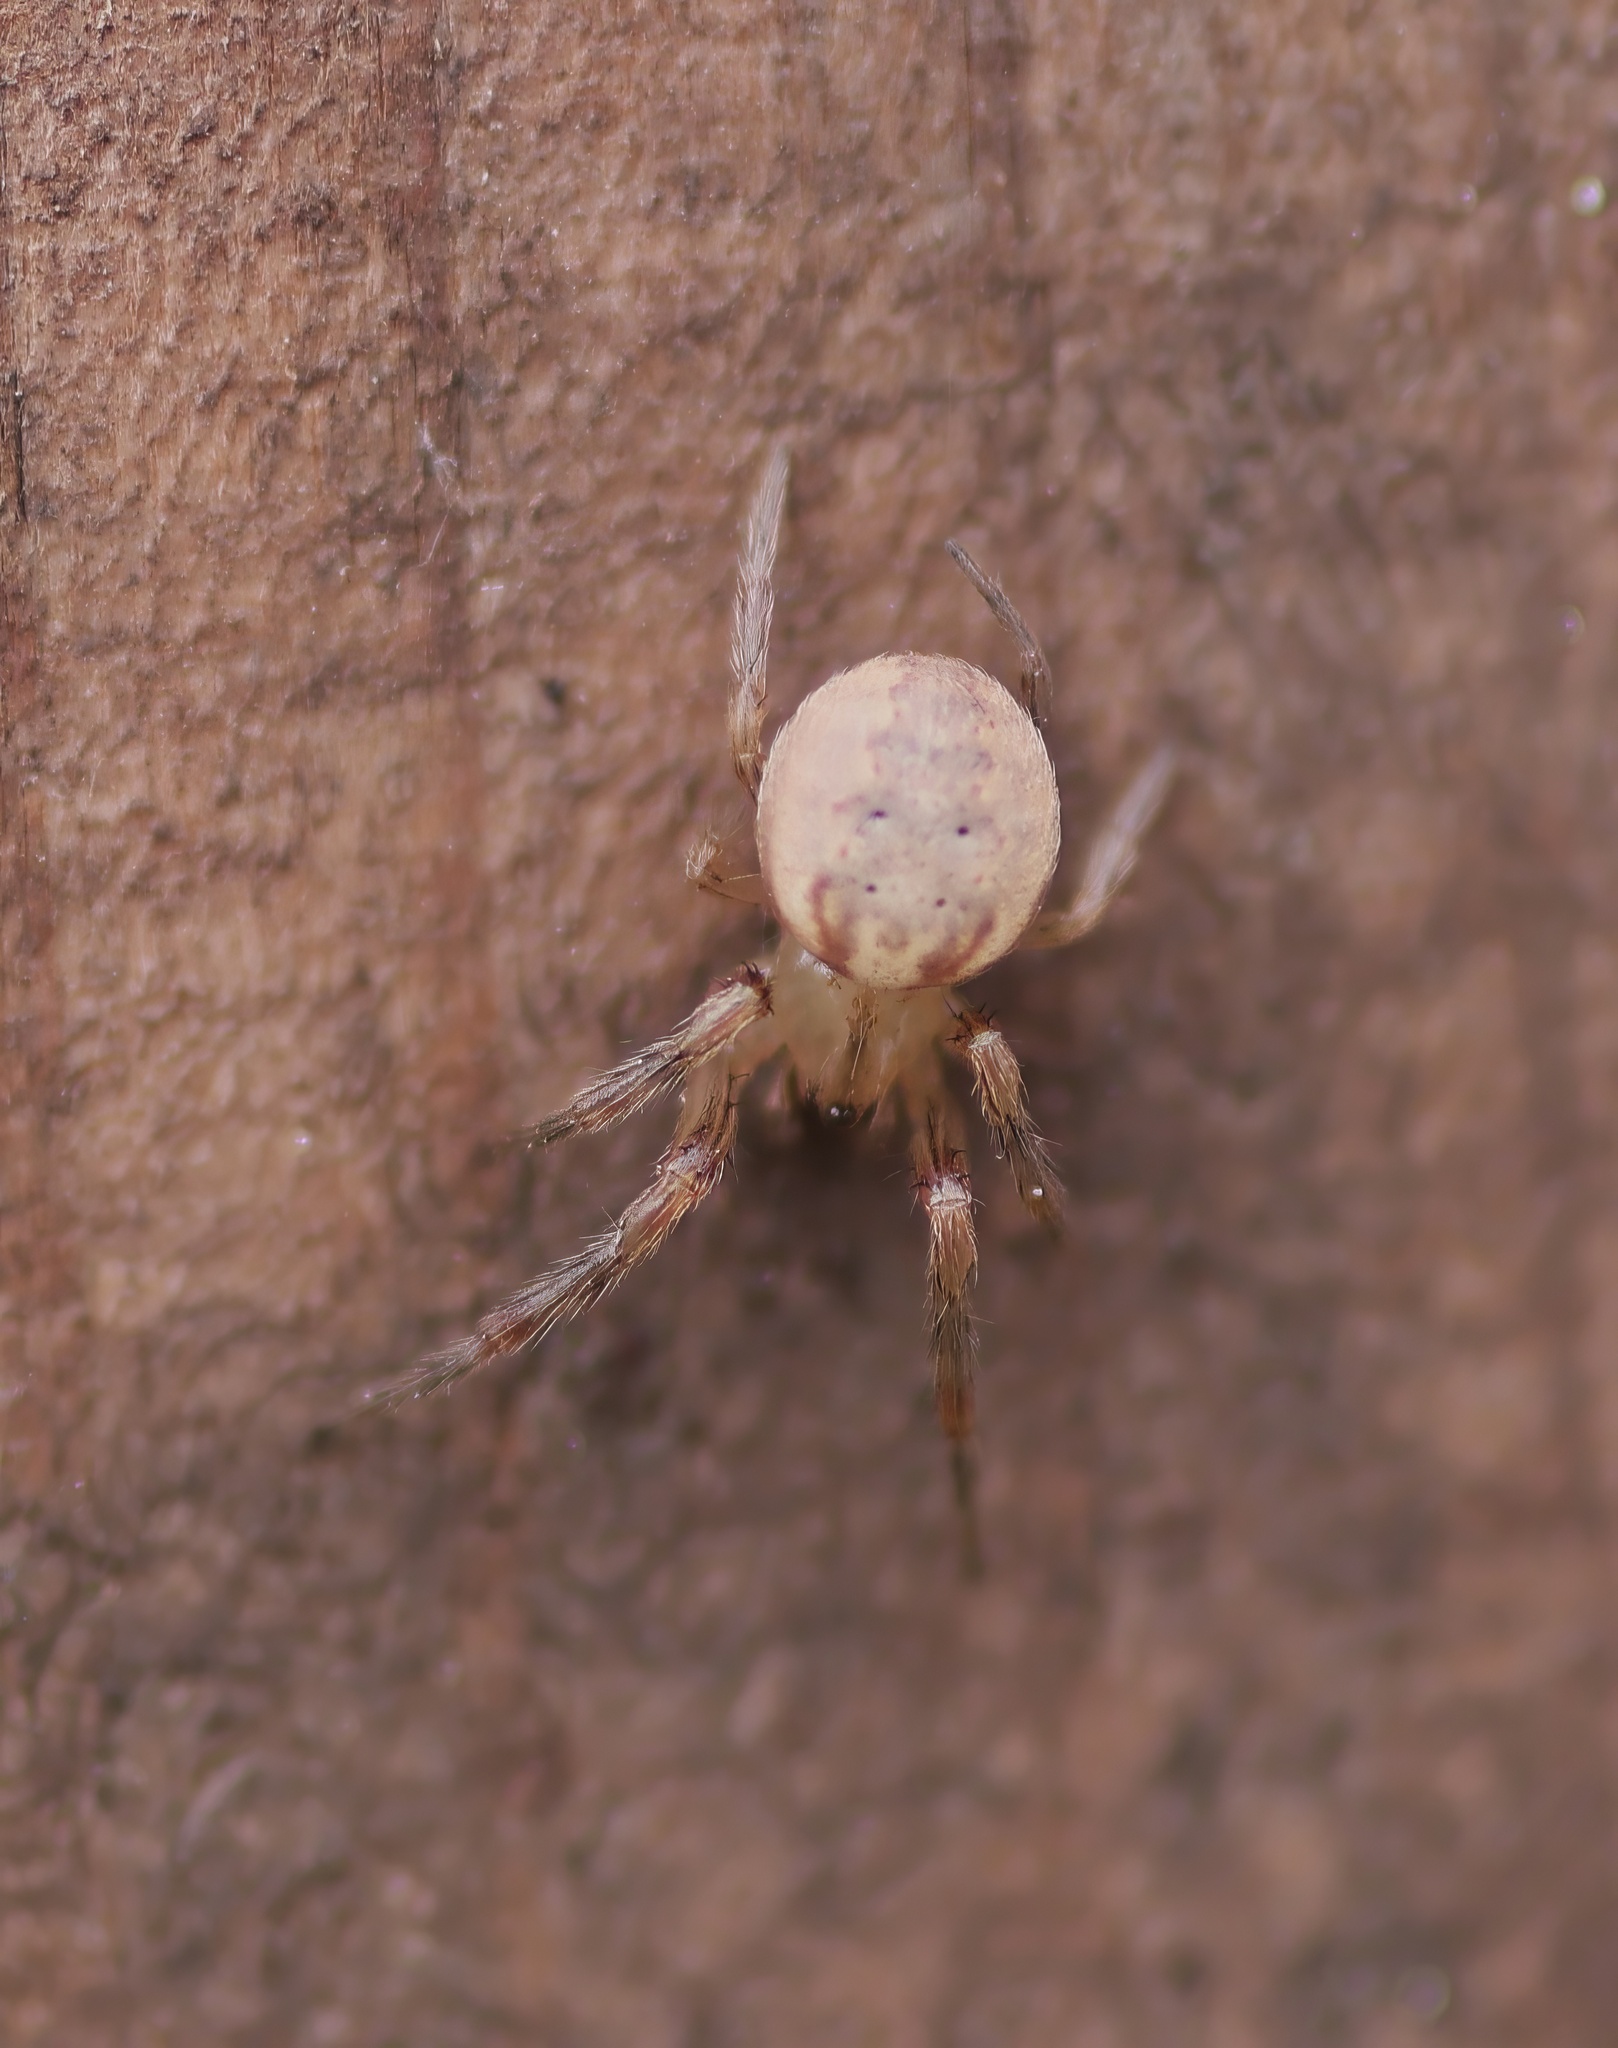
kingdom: Animalia
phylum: Arthropoda
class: Arachnida
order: Araneae
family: Araneidae
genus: Metazygia
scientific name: Metazygia zilloides
